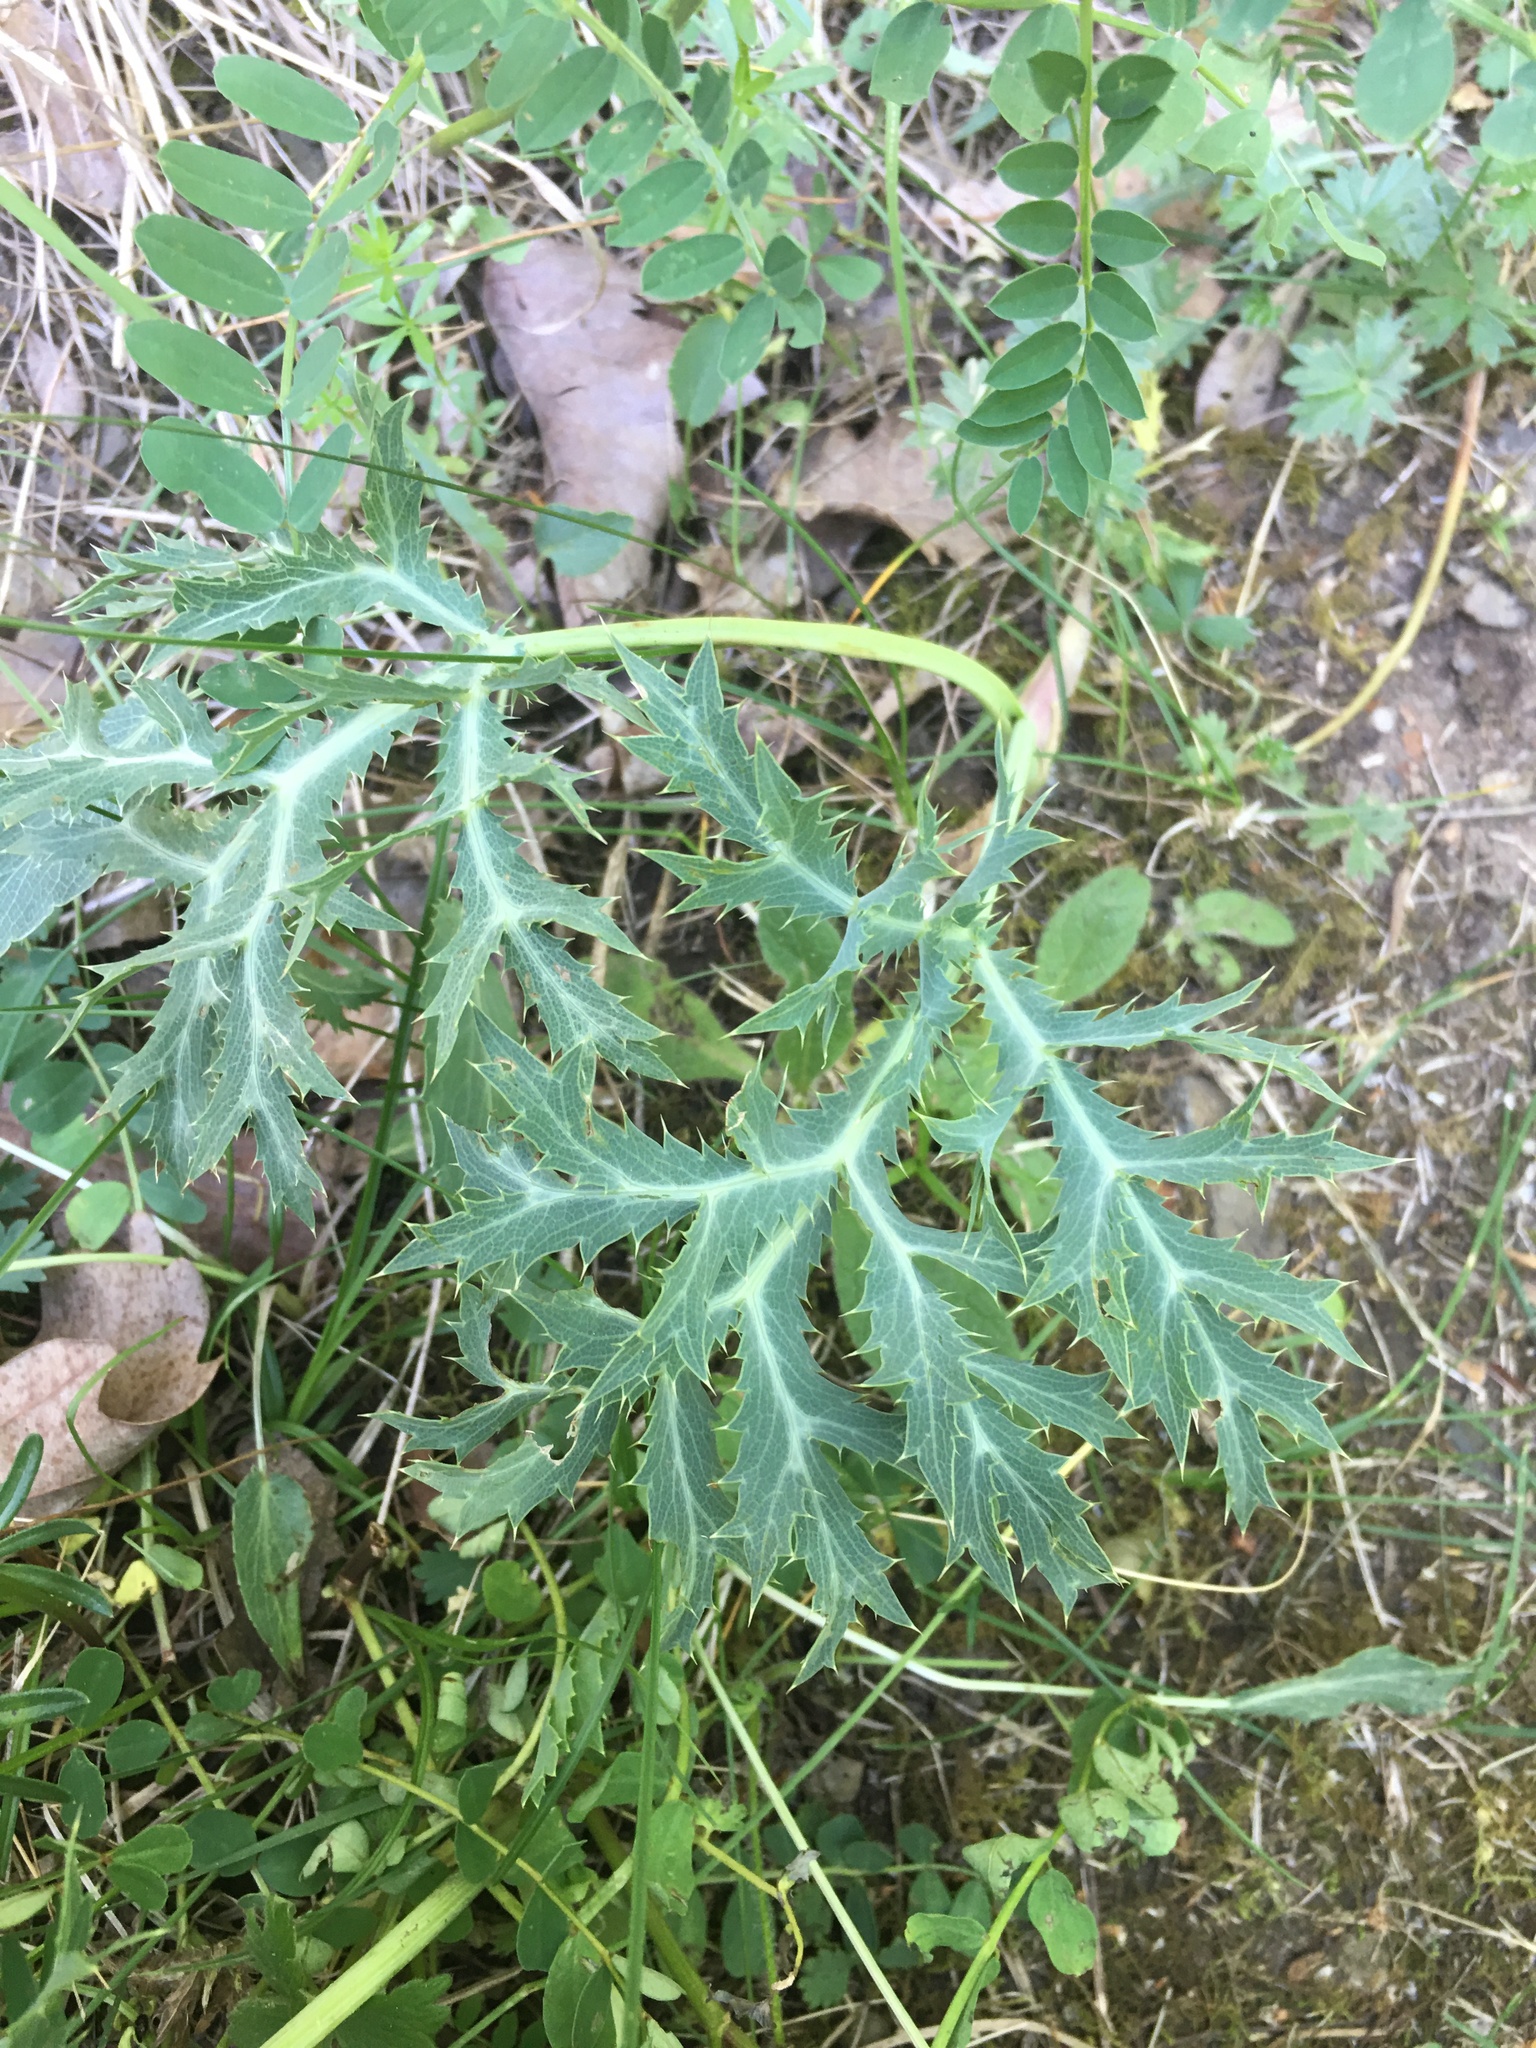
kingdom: Plantae
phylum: Tracheophyta
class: Magnoliopsida
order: Apiales
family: Apiaceae
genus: Eryngium
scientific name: Eryngium campestre
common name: Field eryngo
